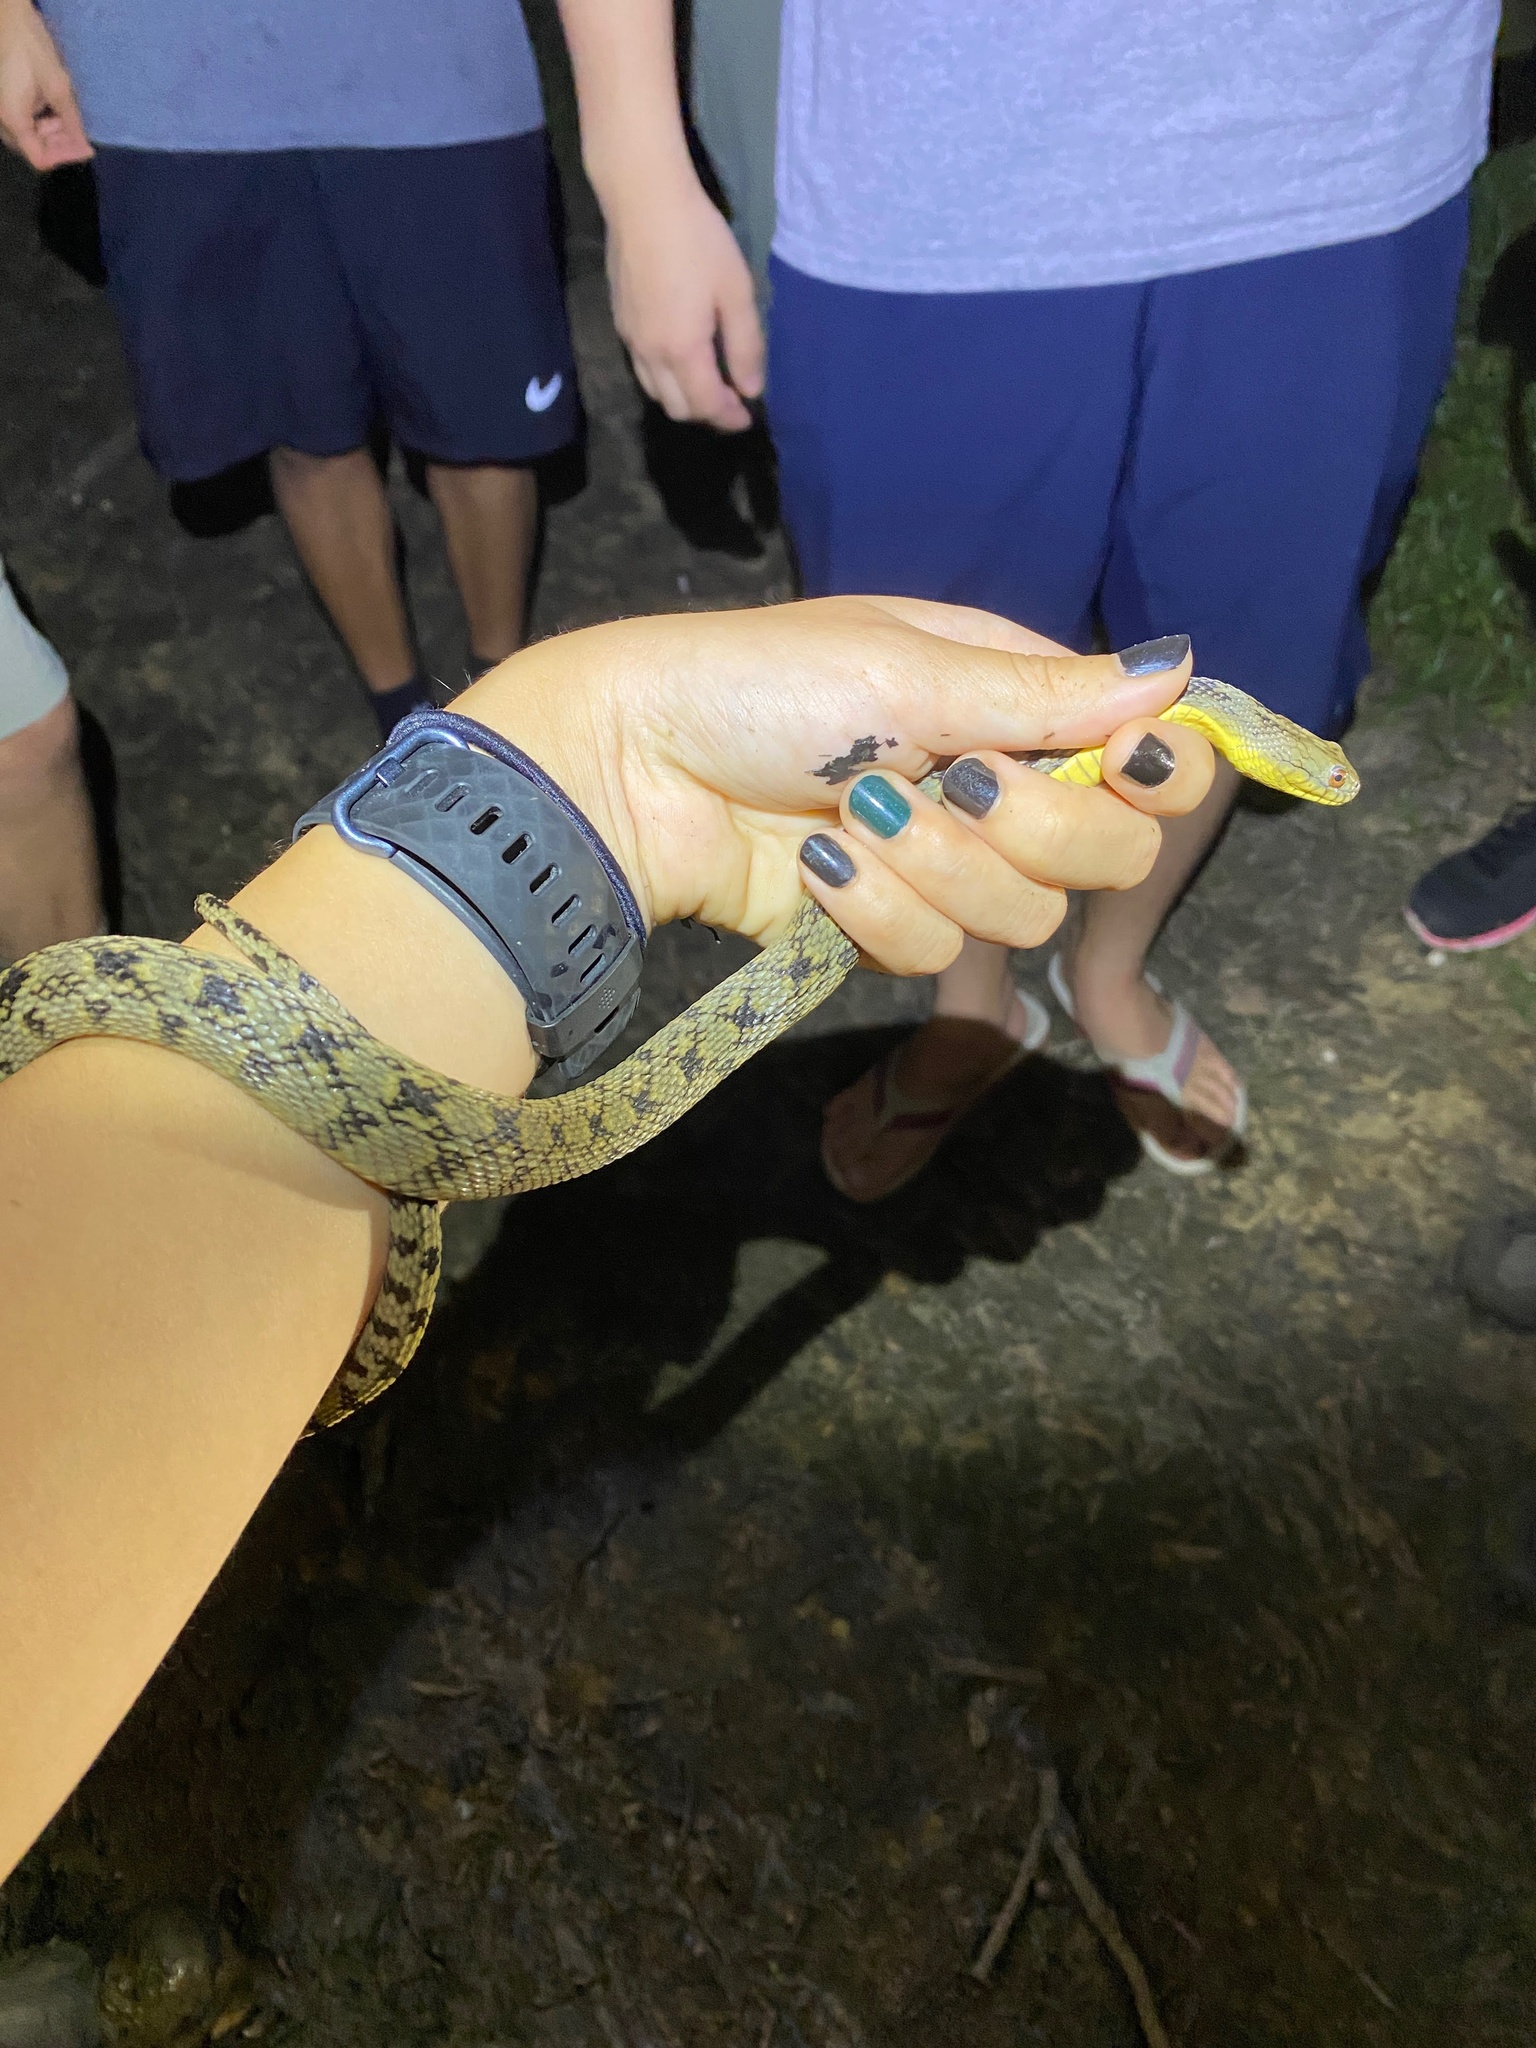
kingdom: Animalia
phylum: Chordata
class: Squamata
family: Colubridae
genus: Nerodia
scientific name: Nerodia rhombifer
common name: Diamondback water snake
